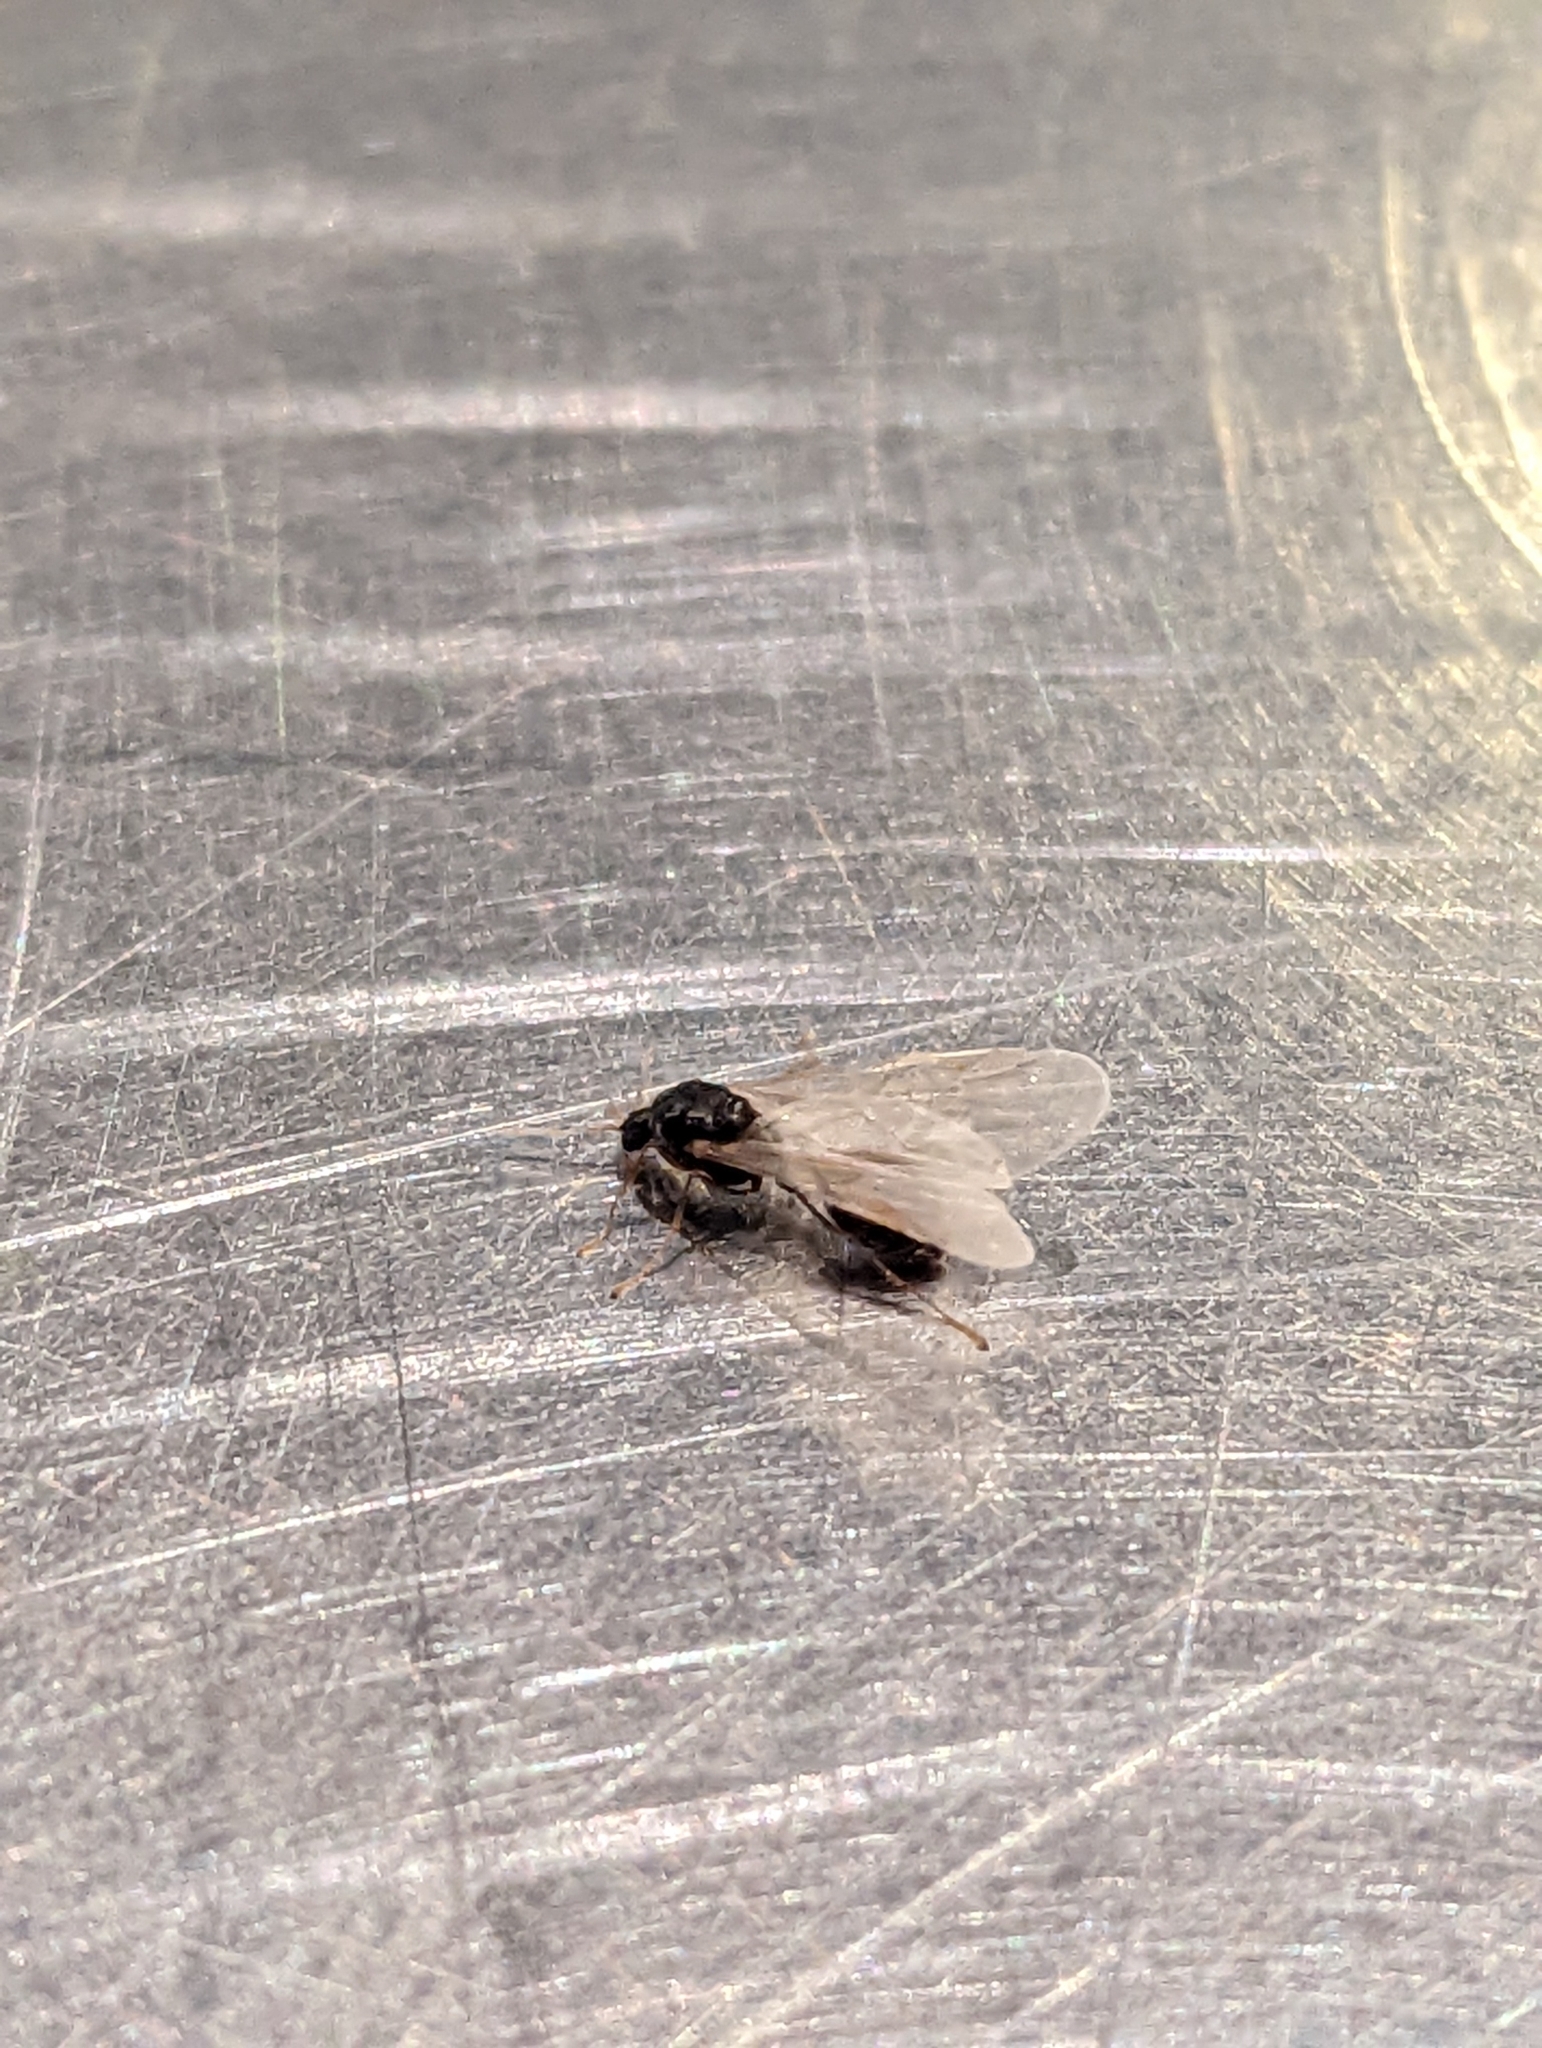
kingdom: Animalia
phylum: Arthropoda
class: Insecta
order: Hymenoptera
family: Formicidae
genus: Tetramorium
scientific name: Tetramorium immigrans
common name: Pavement ant
